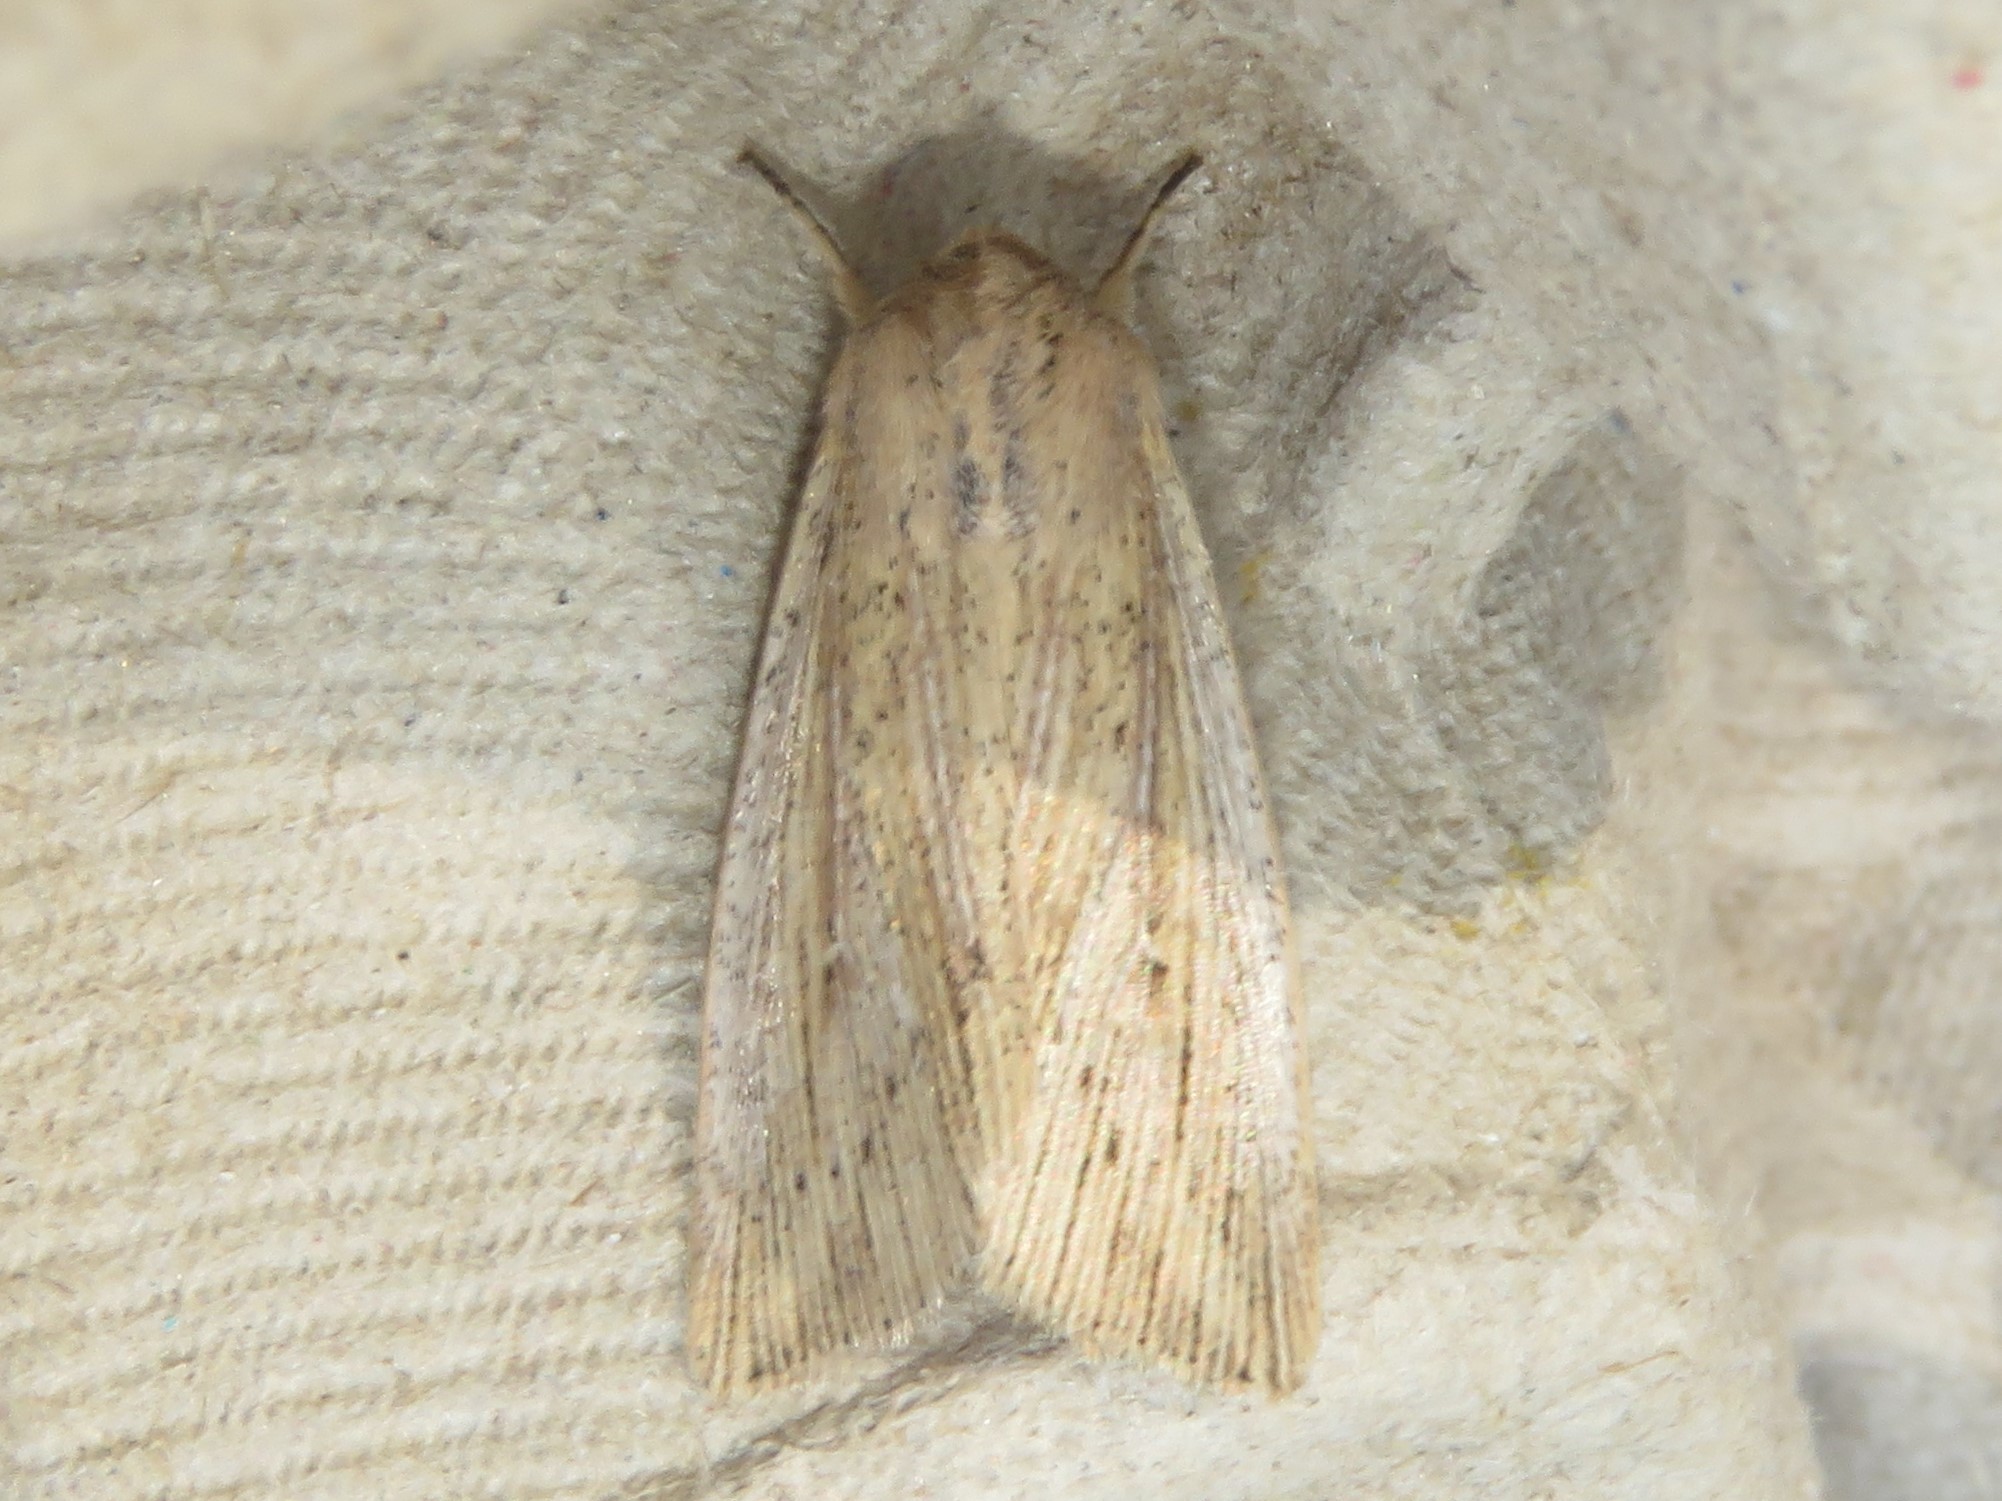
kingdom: Animalia
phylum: Arthropoda
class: Insecta
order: Lepidoptera
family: Noctuidae
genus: Leucania
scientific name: Leucania linita
